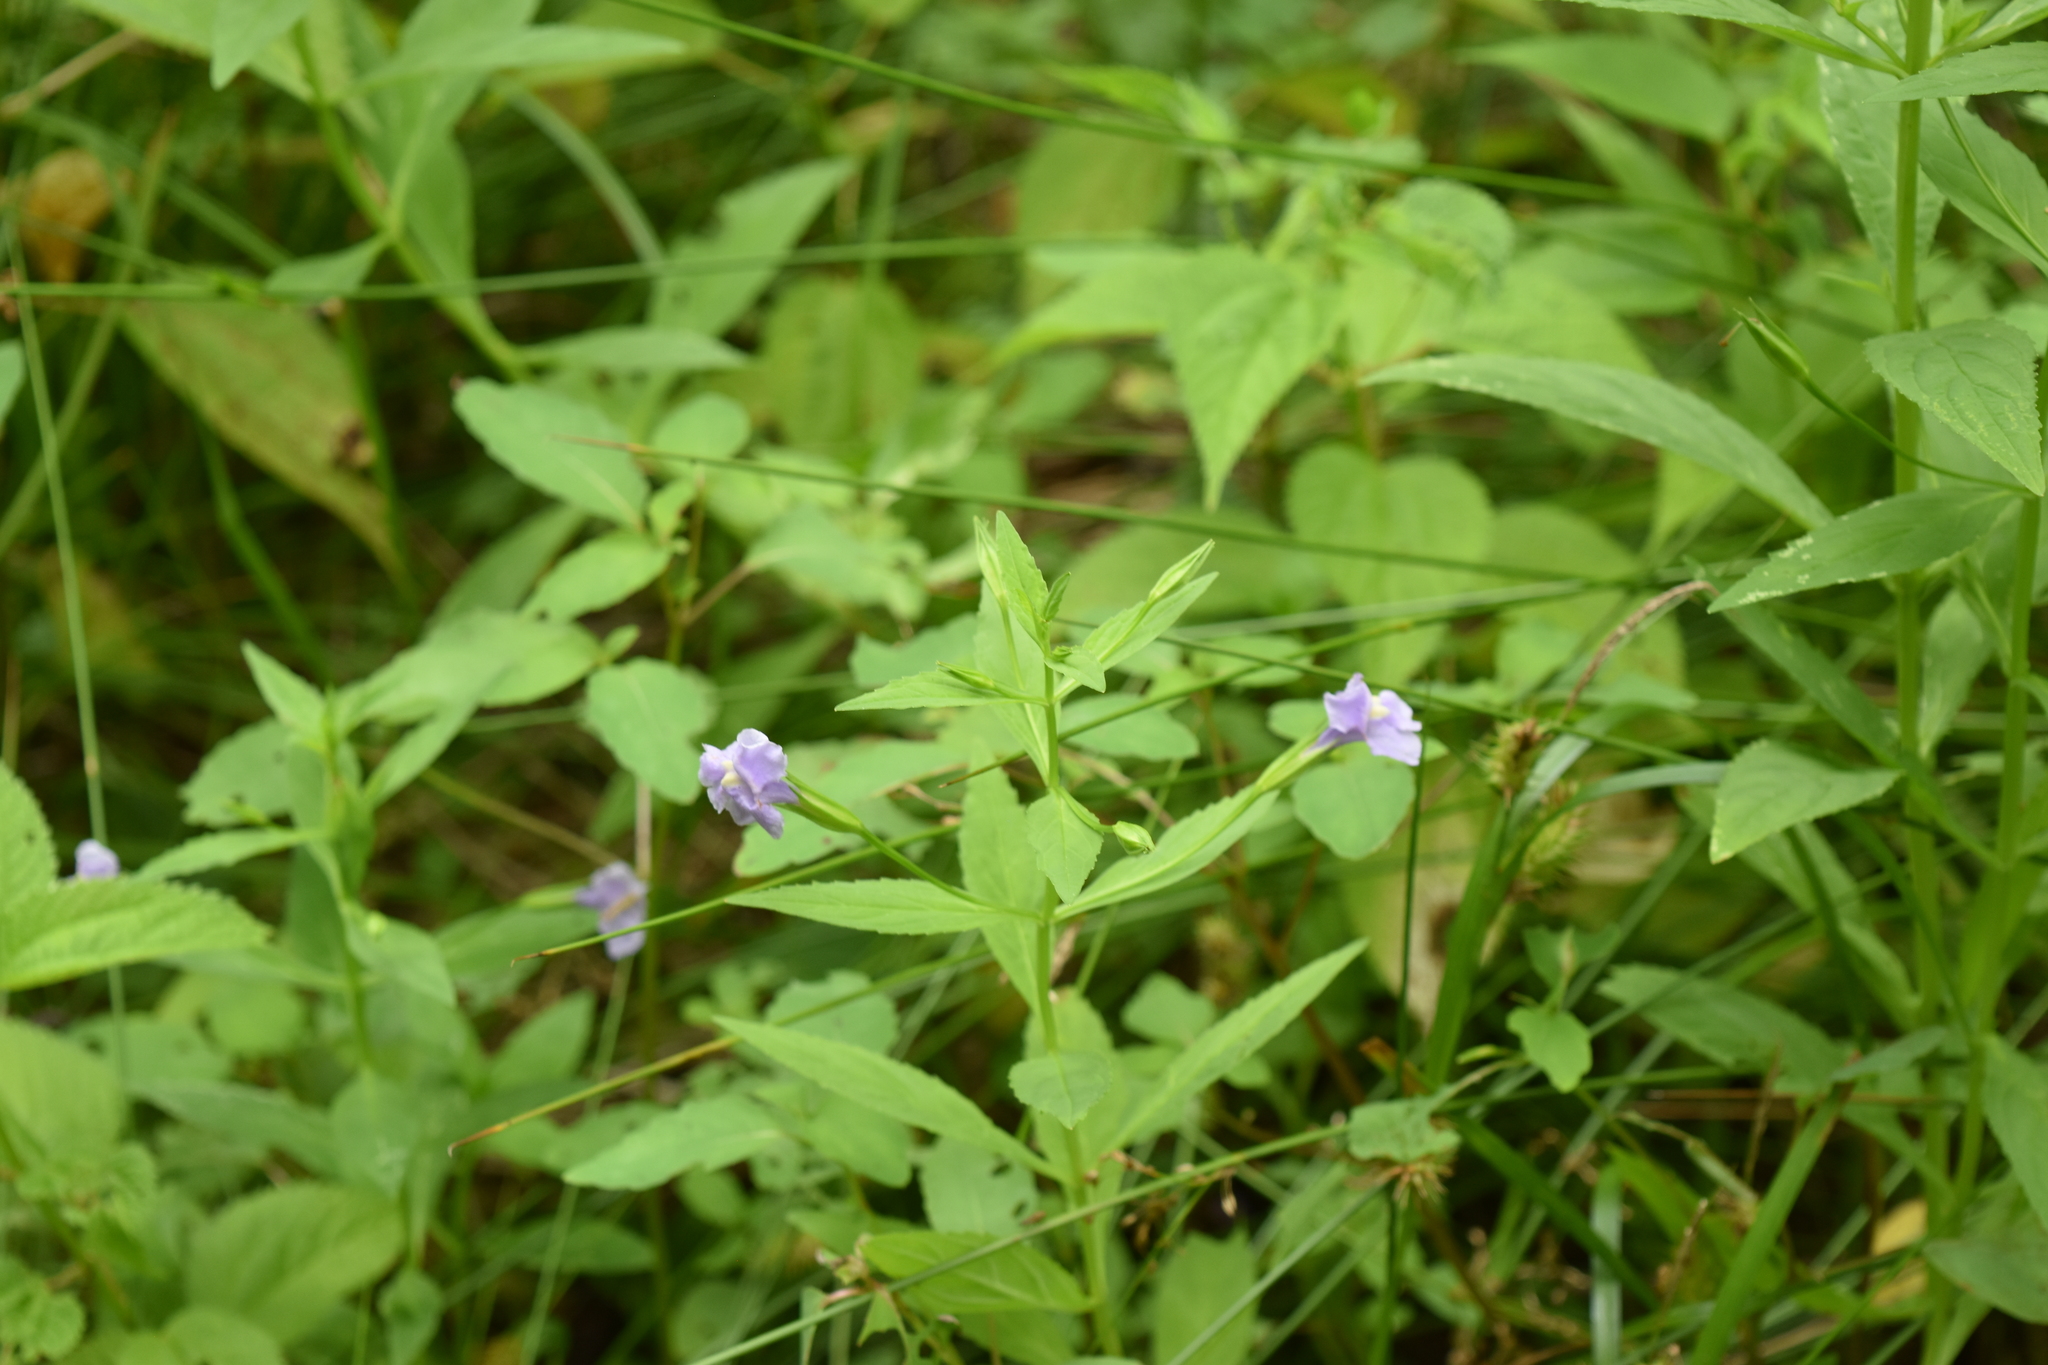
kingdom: Plantae
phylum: Tracheophyta
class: Magnoliopsida
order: Lamiales
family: Phrymaceae
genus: Mimulus
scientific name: Mimulus ringens
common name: Allegheny monkeyflower
